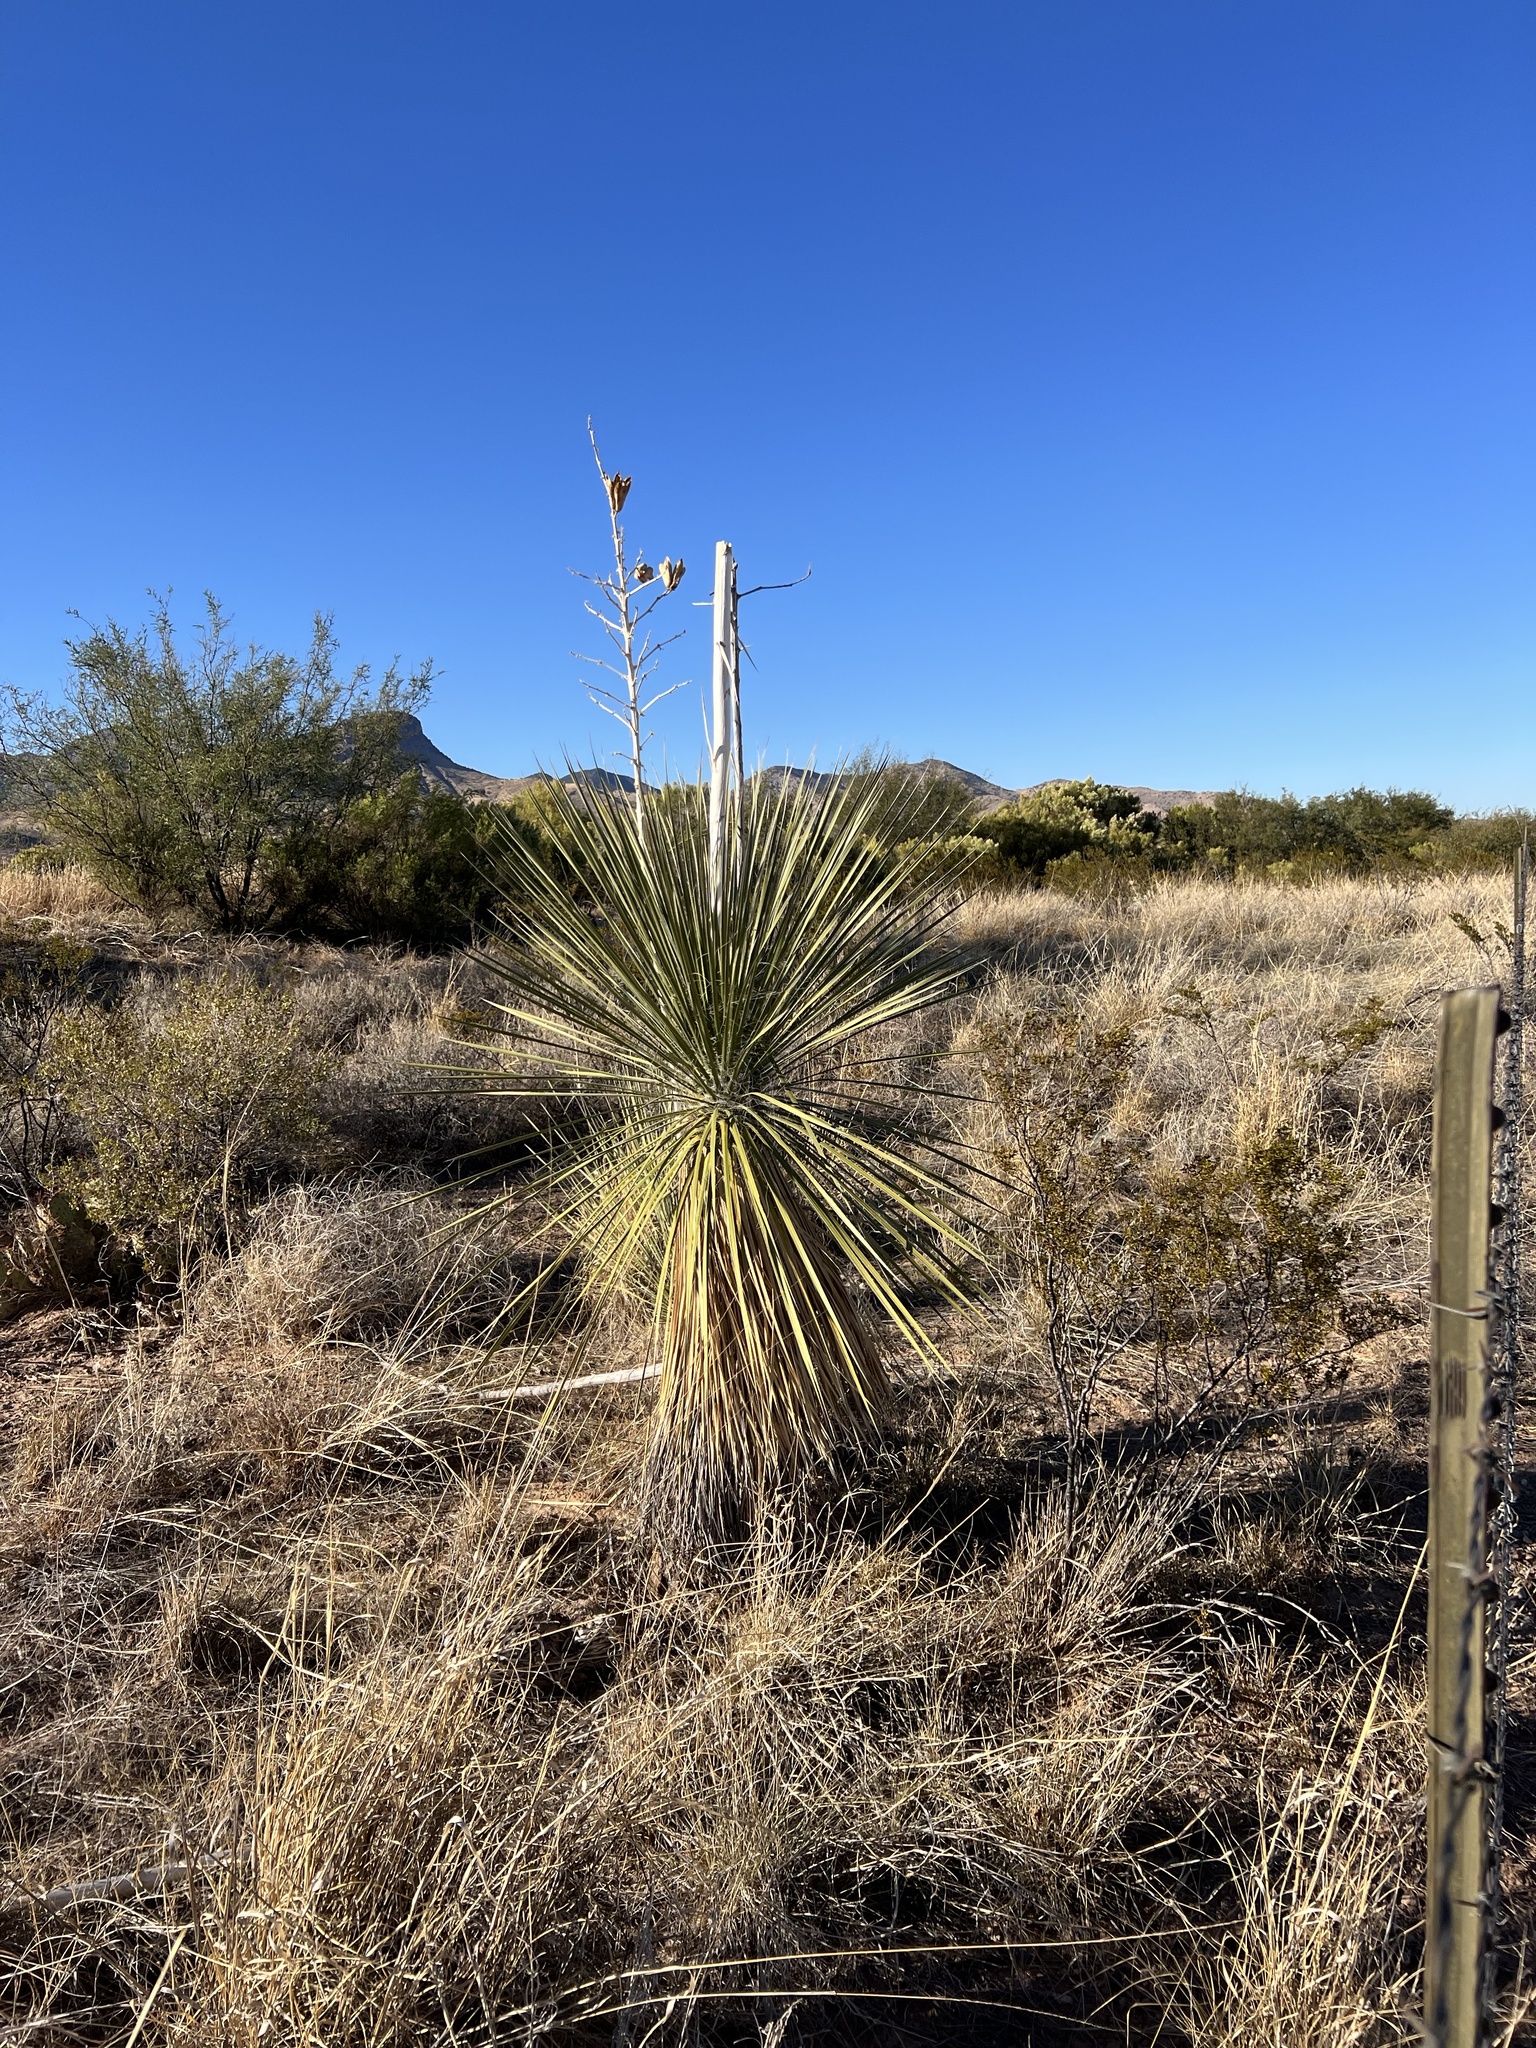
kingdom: Plantae
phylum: Tracheophyta
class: Liliopsida
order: Asparagales
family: Asparagaceae
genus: Yucca
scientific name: Yucca elata
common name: Palmella
